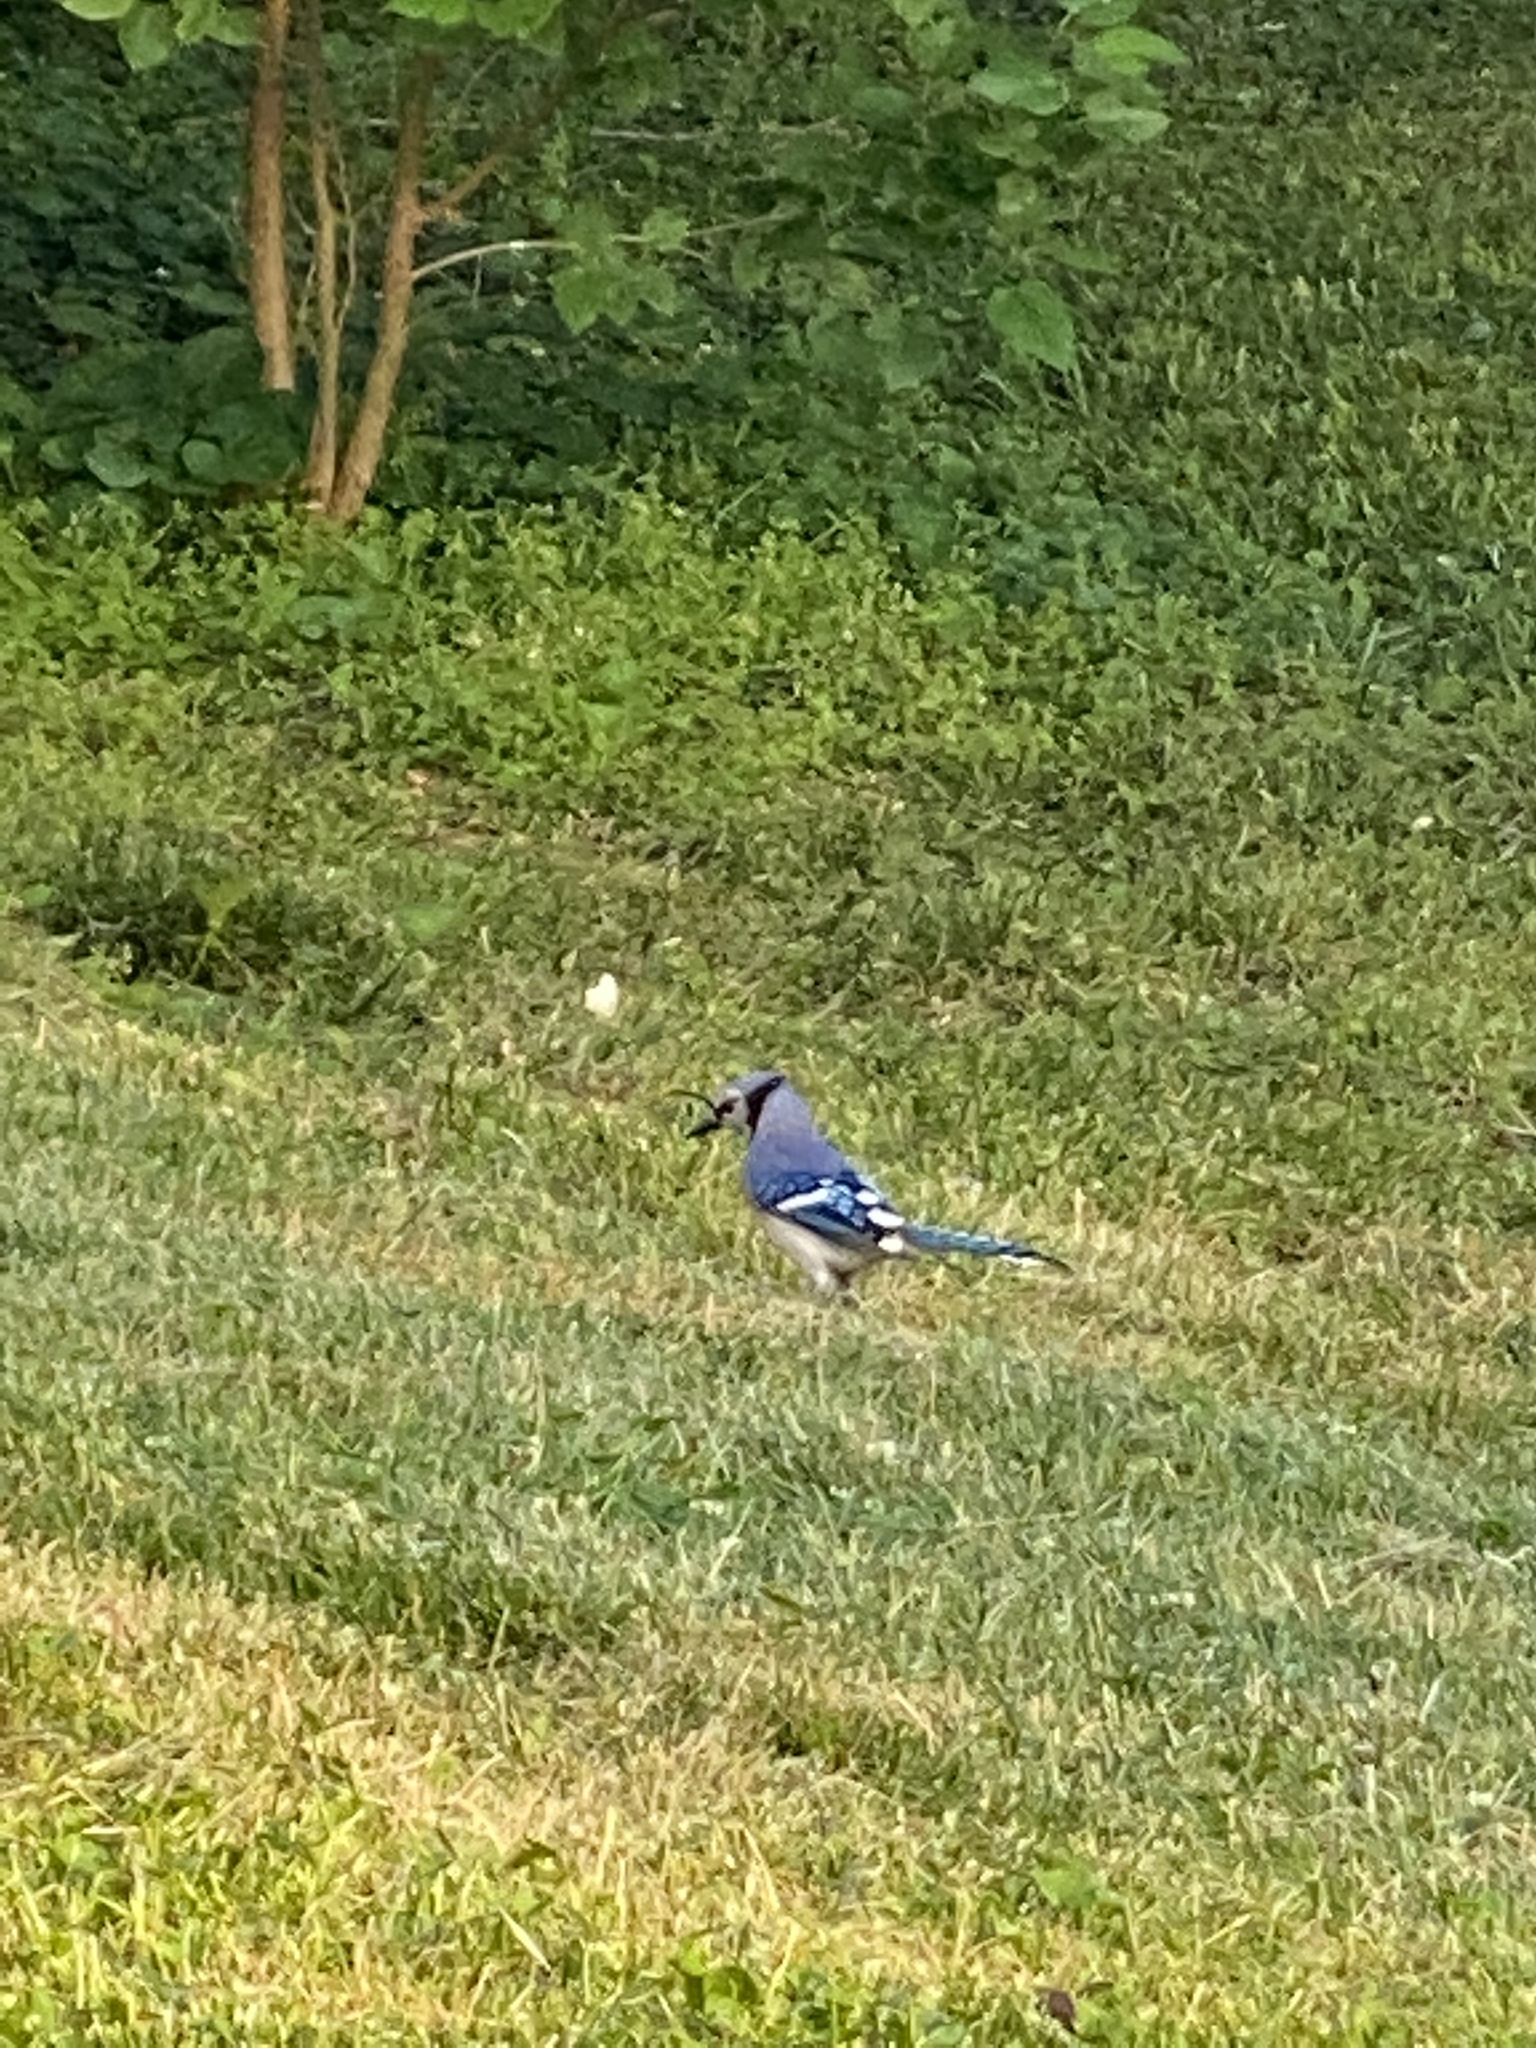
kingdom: Animalia
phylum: Chordata
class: Aves
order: Passeriformes
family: Corvidae
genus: Cyanocitta
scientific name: Cyanocitta cristata
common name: Blue jay
